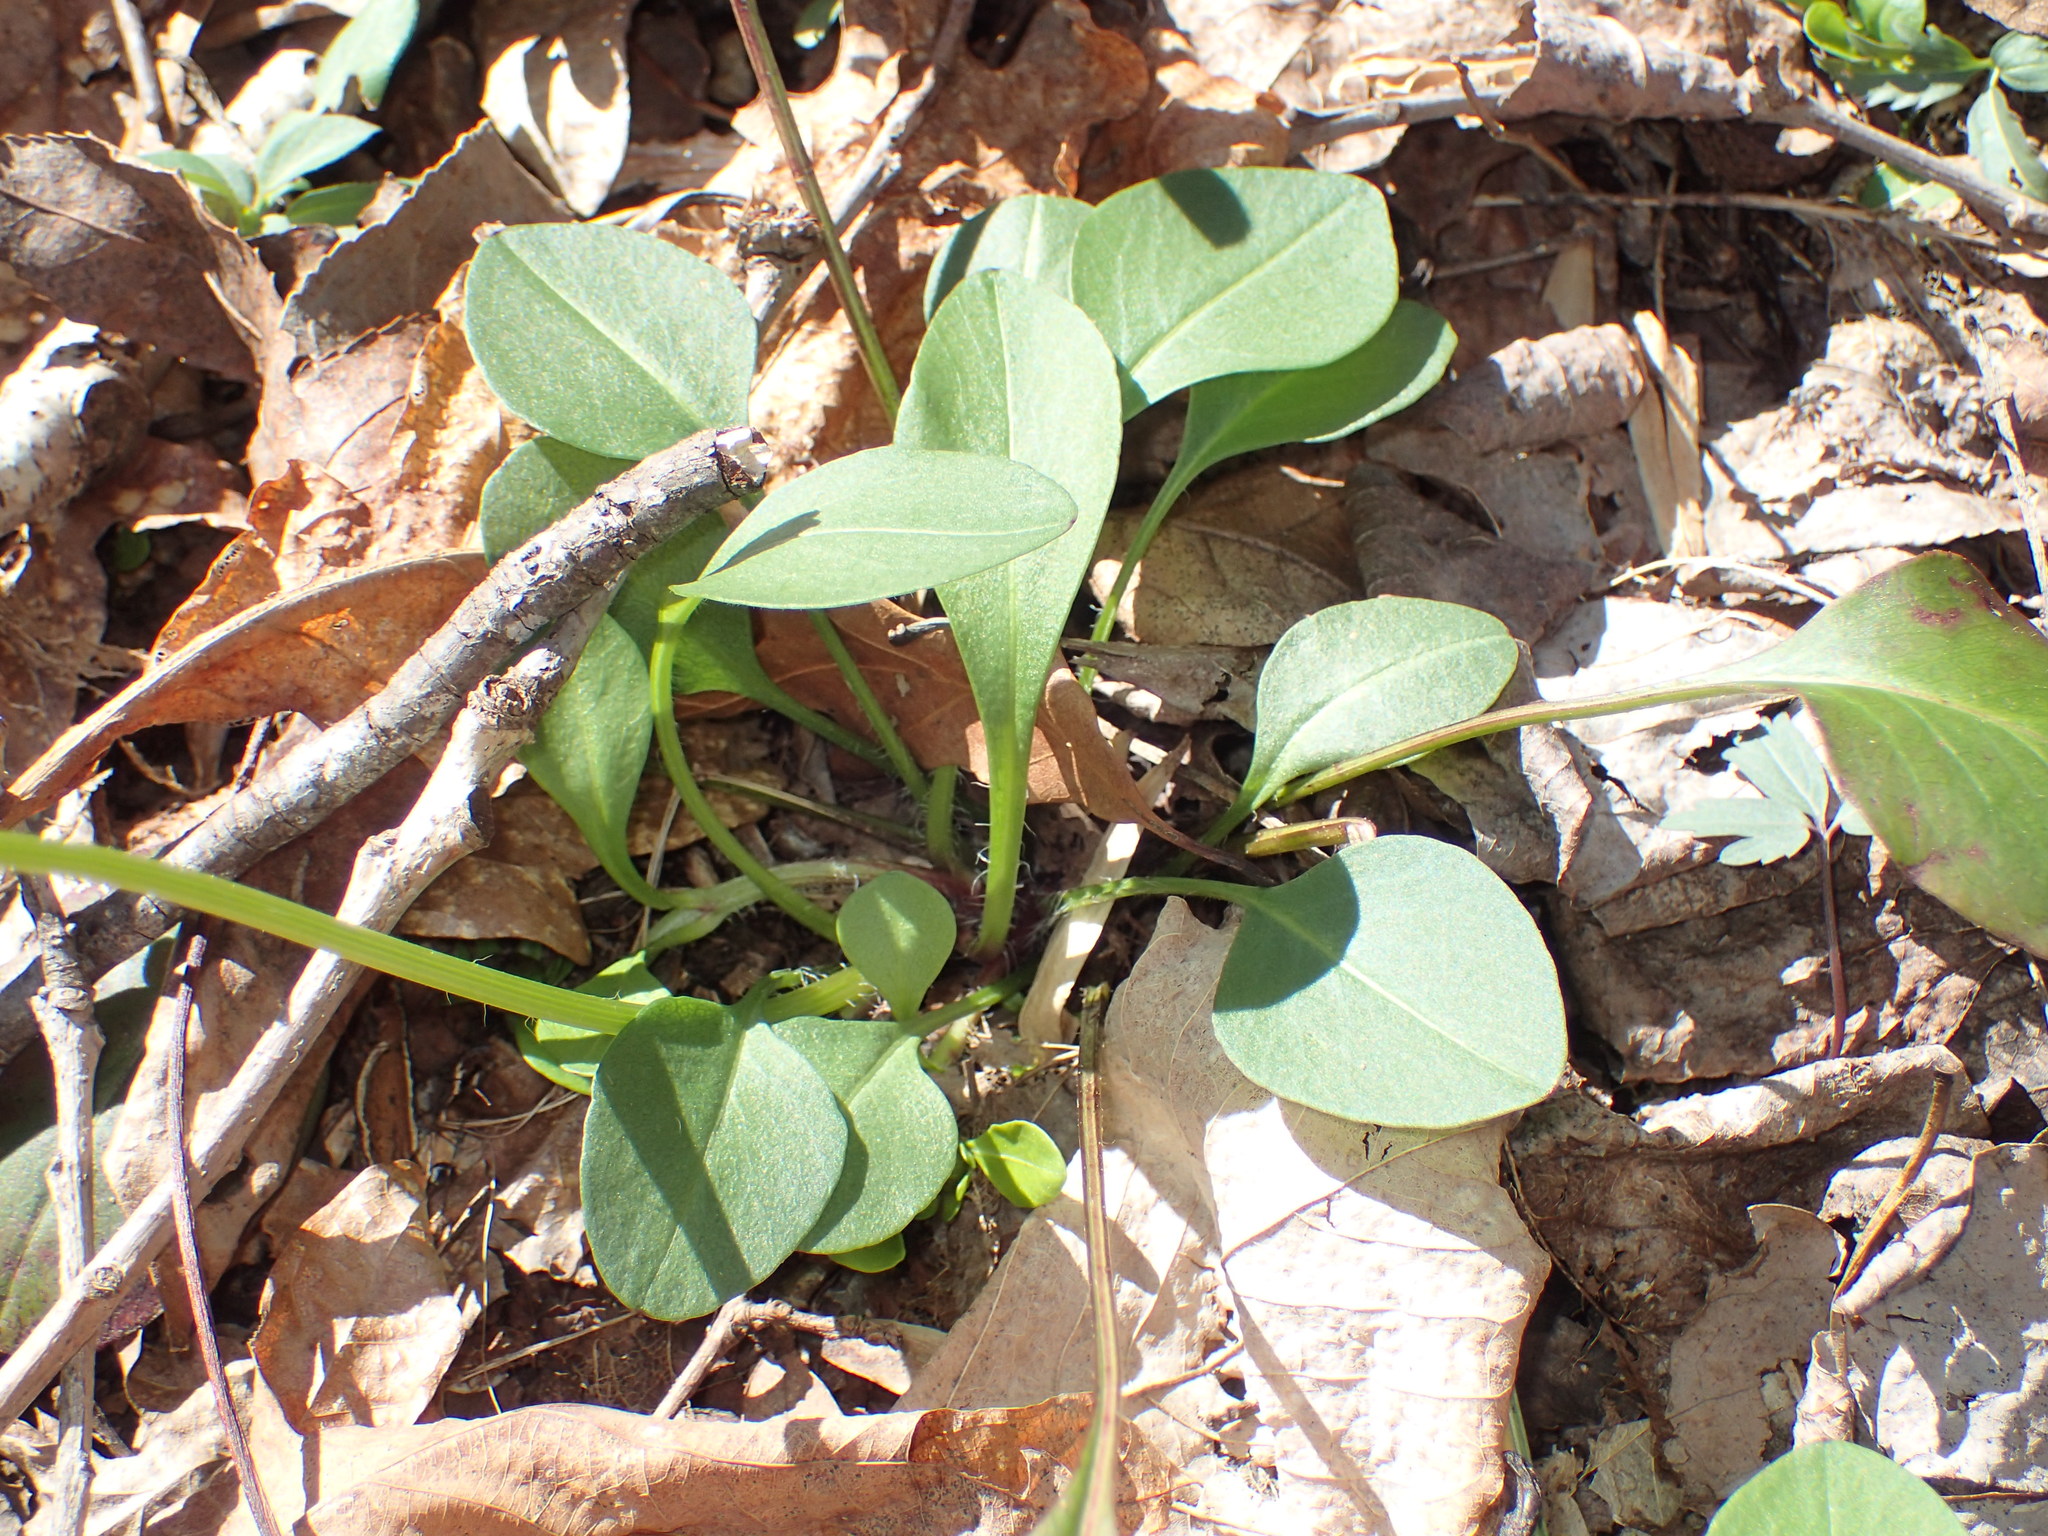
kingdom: Plantae
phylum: Tracheophyta
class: Magnoliopsida
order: Asterales
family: Asteraceae
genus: Coreopsis
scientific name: Coreopsis auriculata
